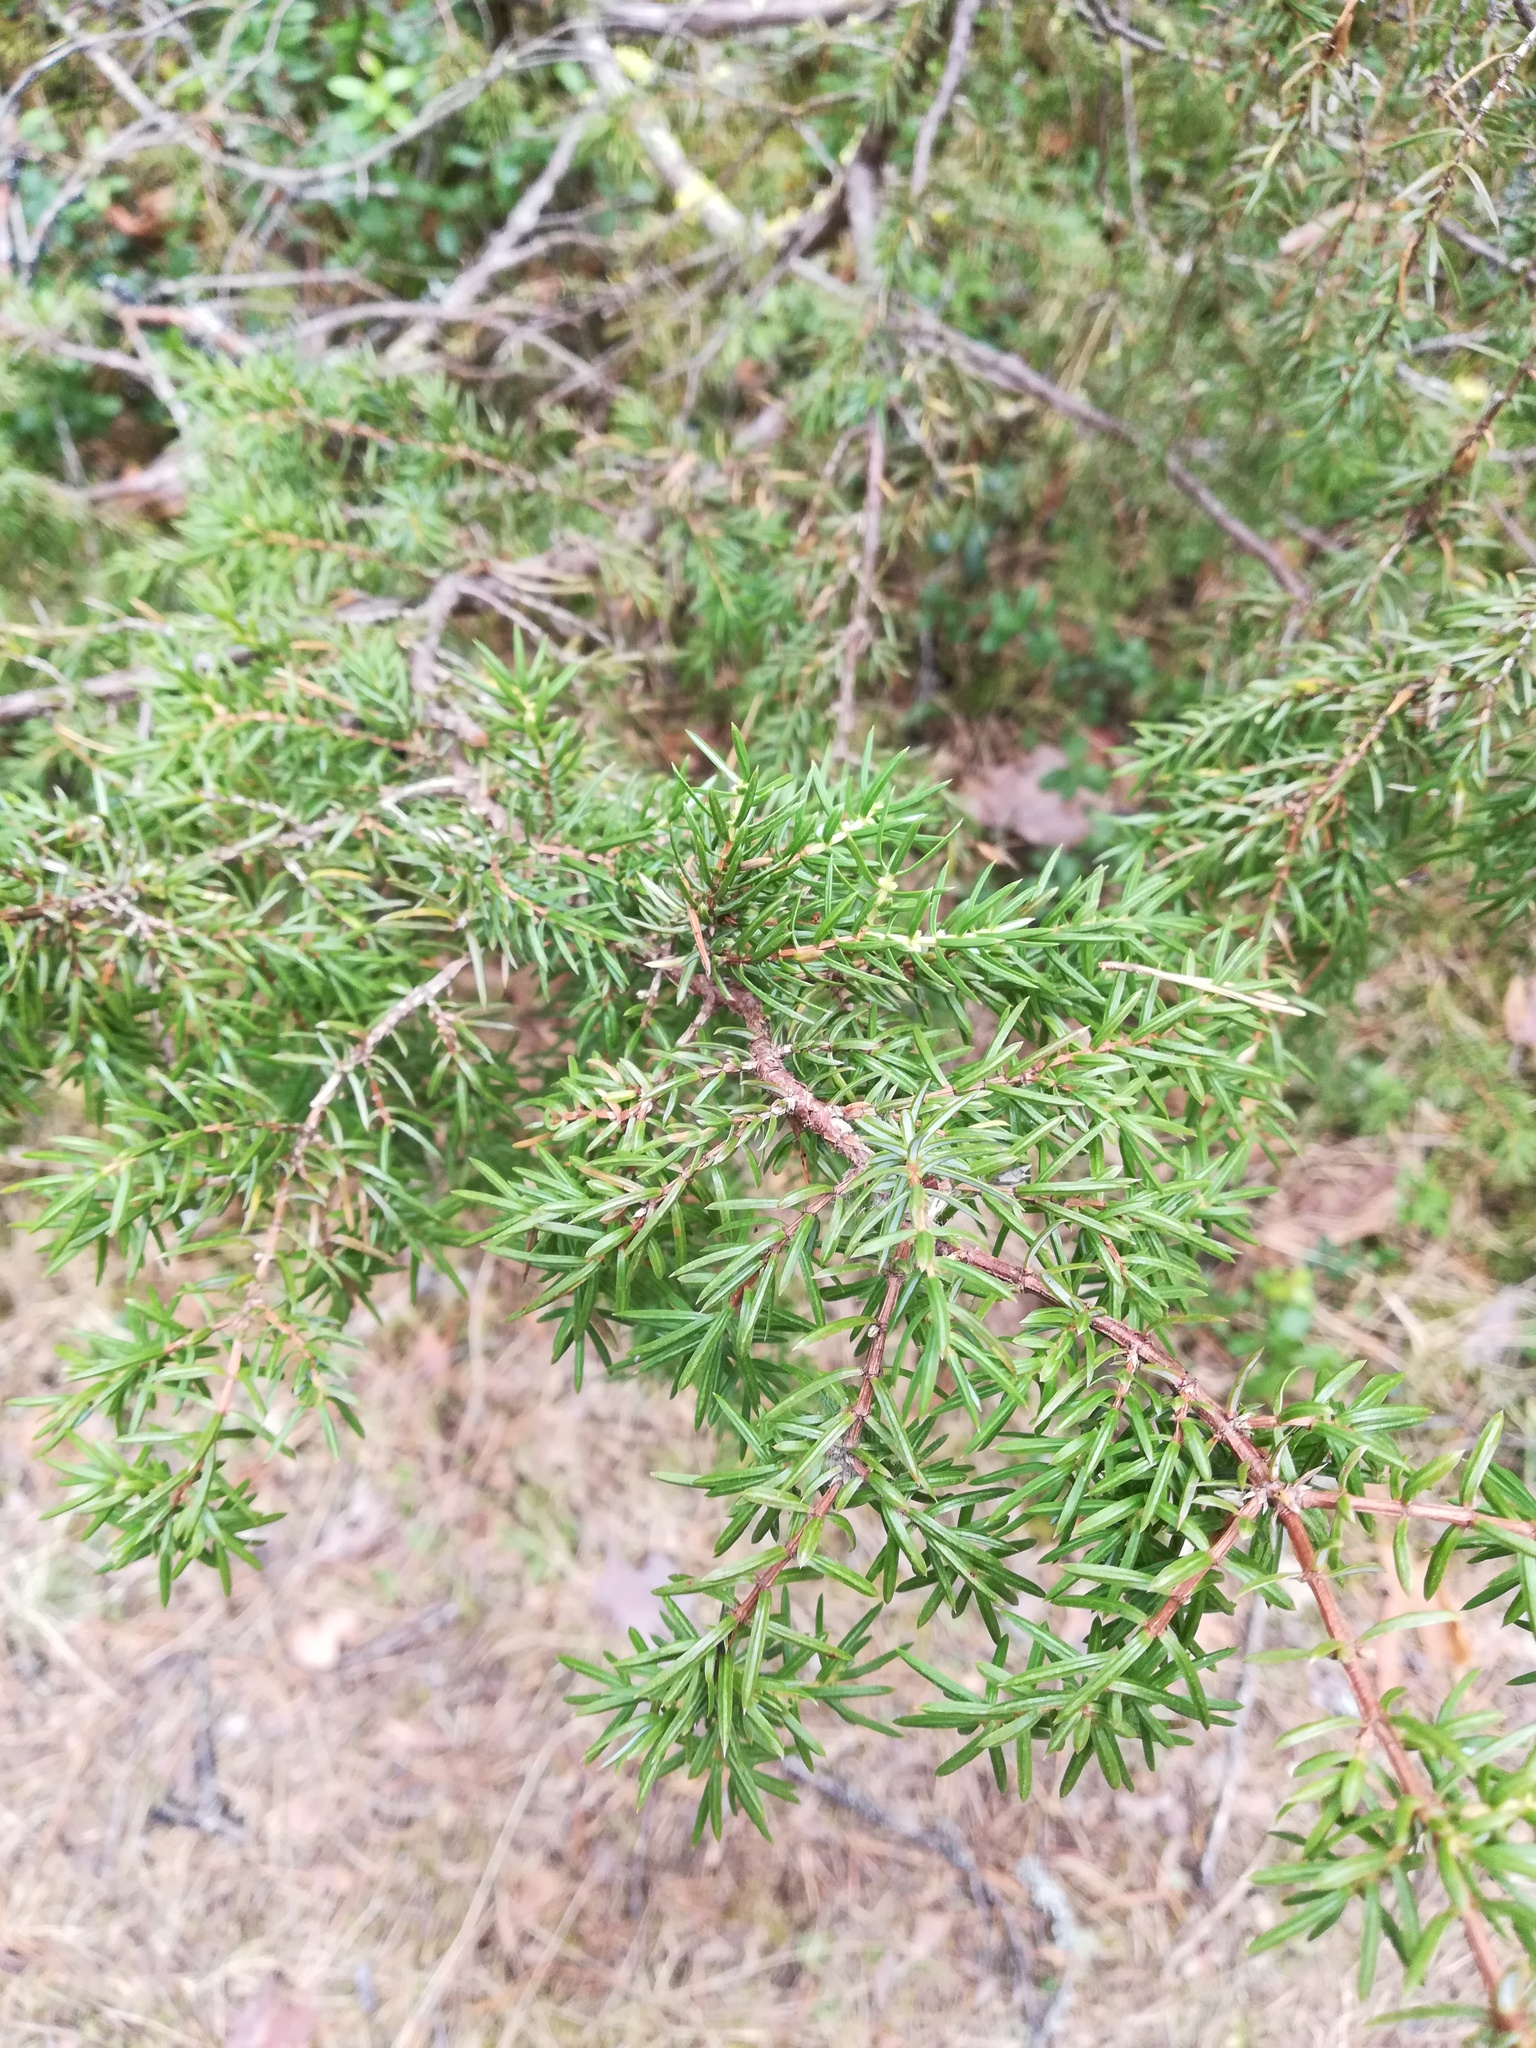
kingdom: Plantae
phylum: Tracheophyta
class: Pinopsida
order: Pinales
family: Cupressaceae
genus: Juniperus
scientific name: Juniperus communis
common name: Common juniper
